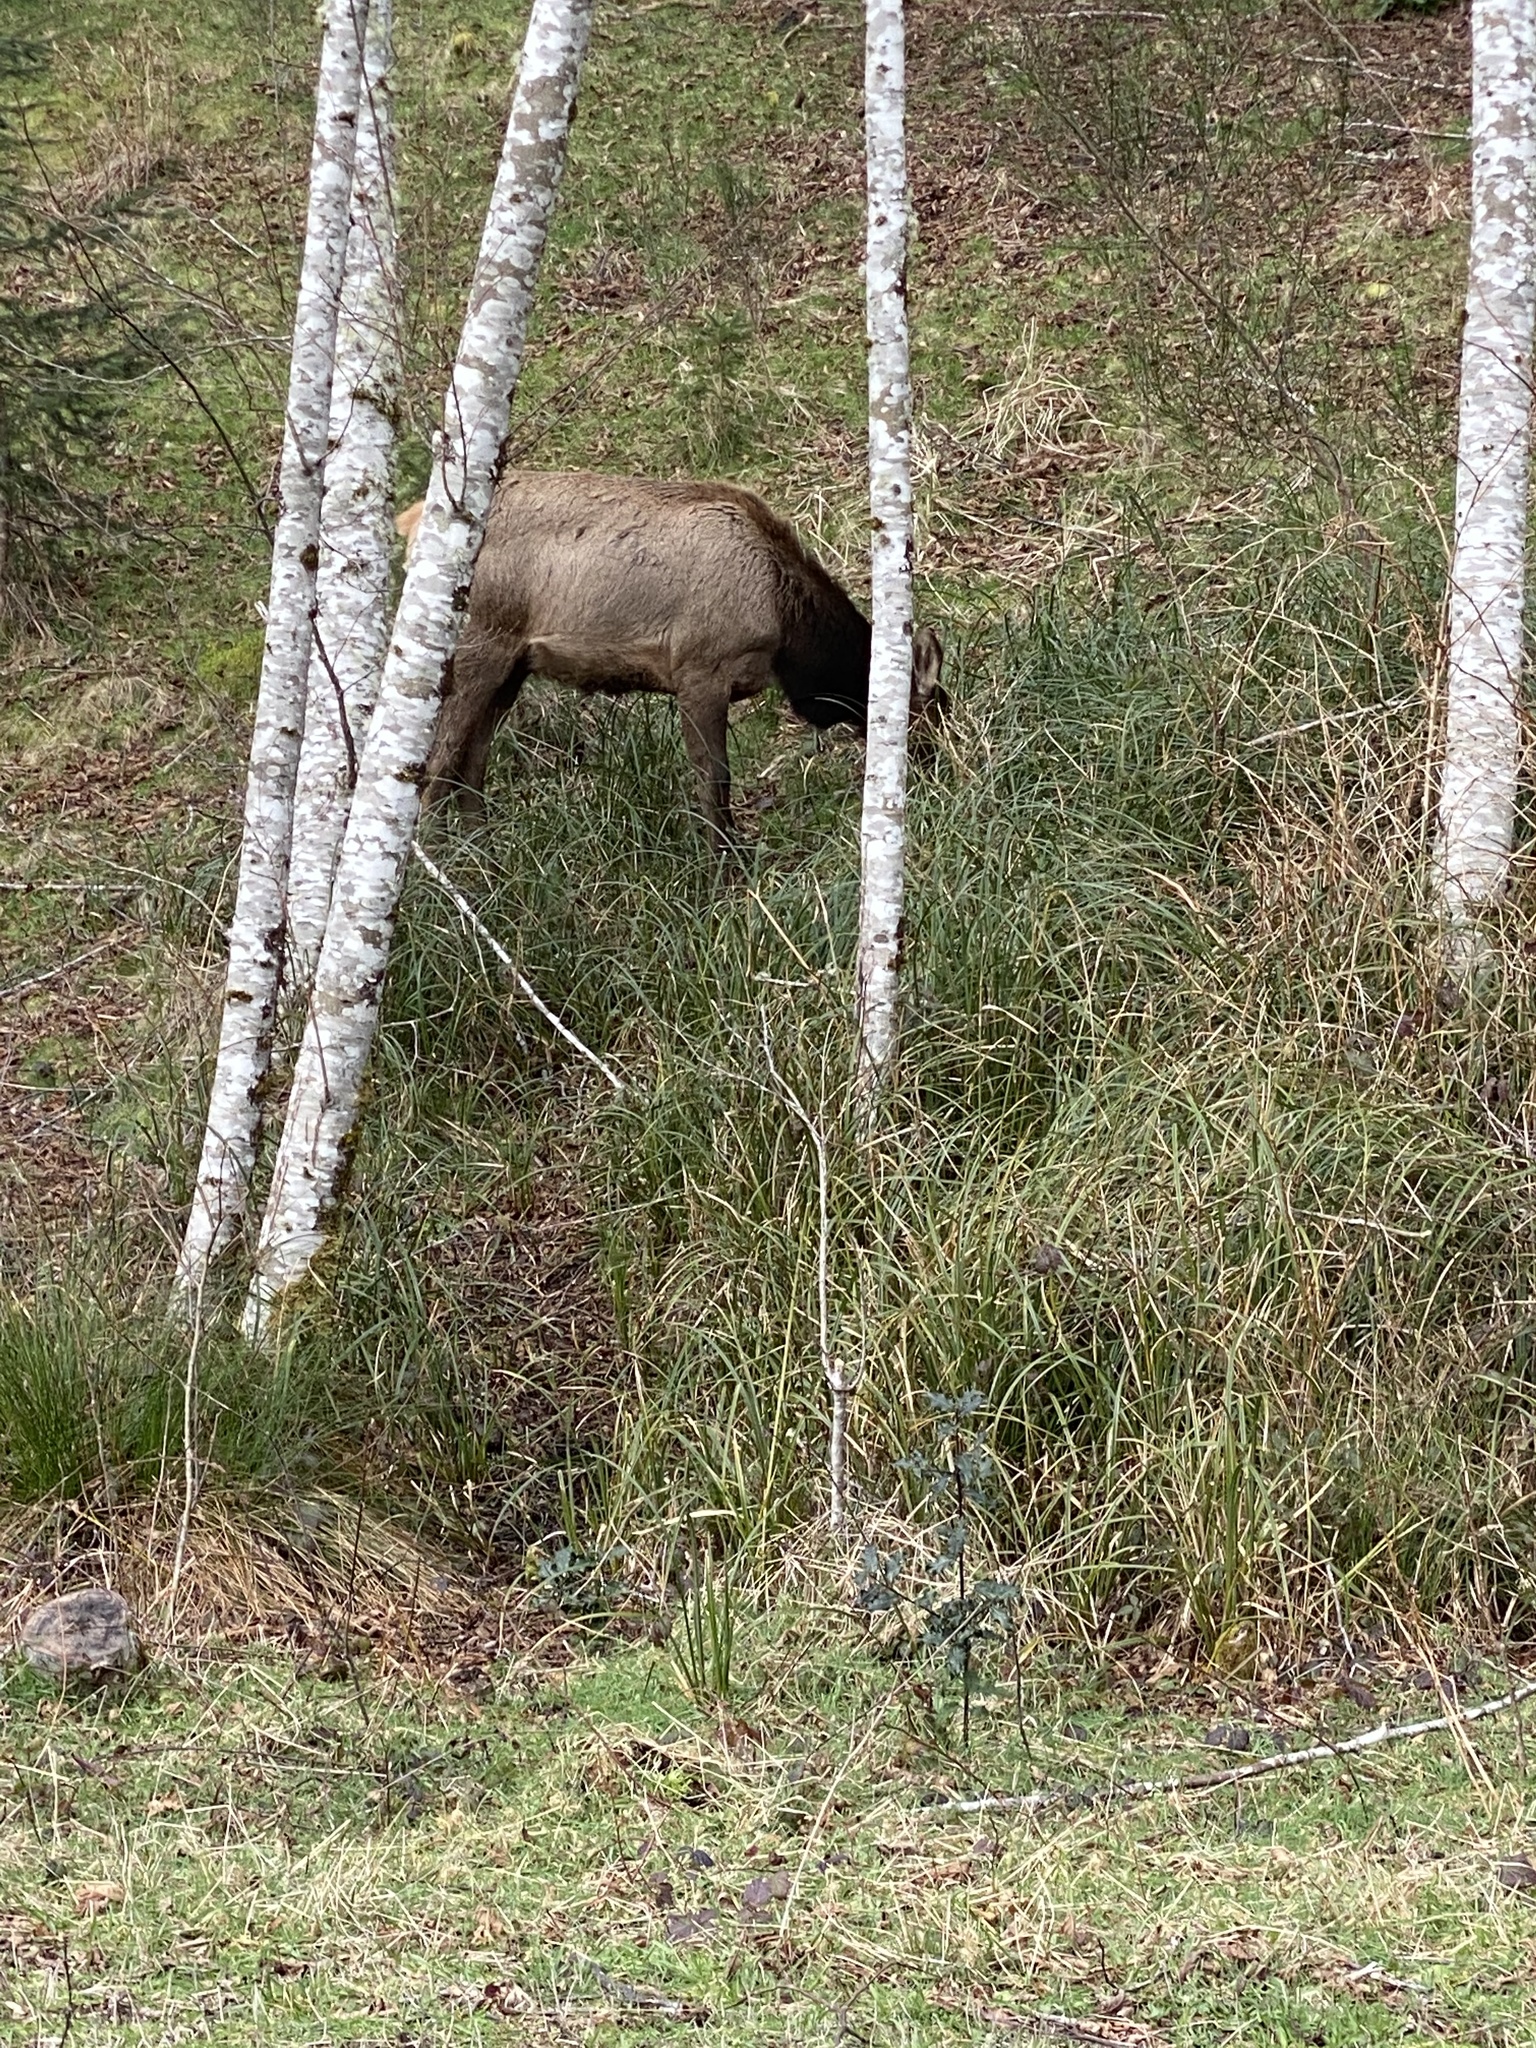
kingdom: Animalia
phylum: Chordata
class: Mammalia
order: Artiodactyla
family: Cervidae
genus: Cervus
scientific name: Cervus elaphus
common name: Red deer
